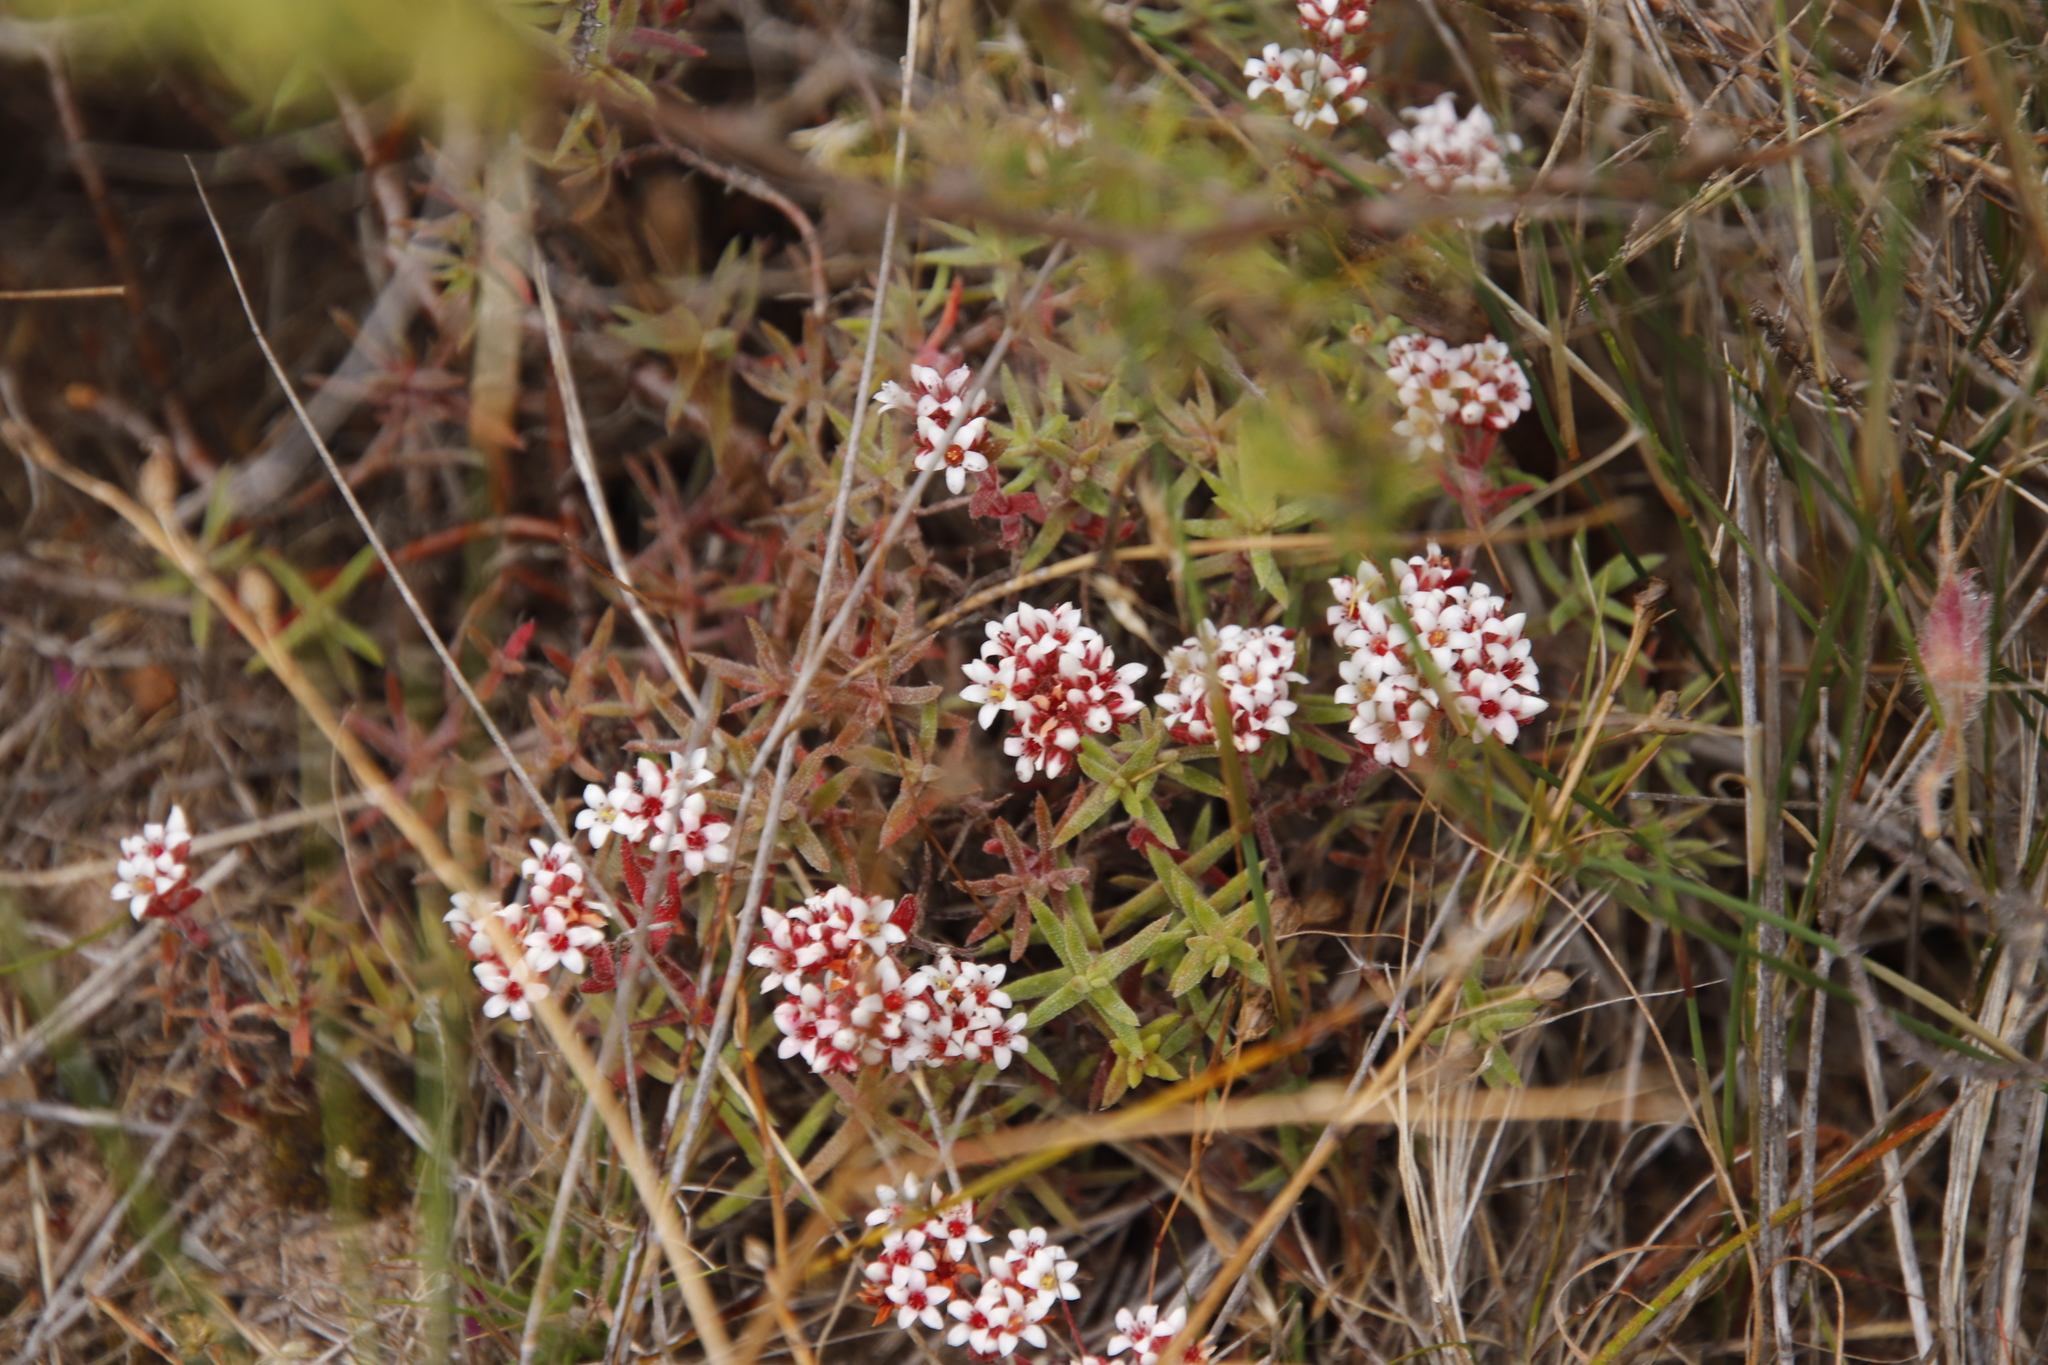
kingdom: Plantae
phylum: Tracheophyta
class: Magnoliopsida
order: Saxifragales
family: Crassulaceae
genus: Crassula
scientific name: Crassula pruinosa
